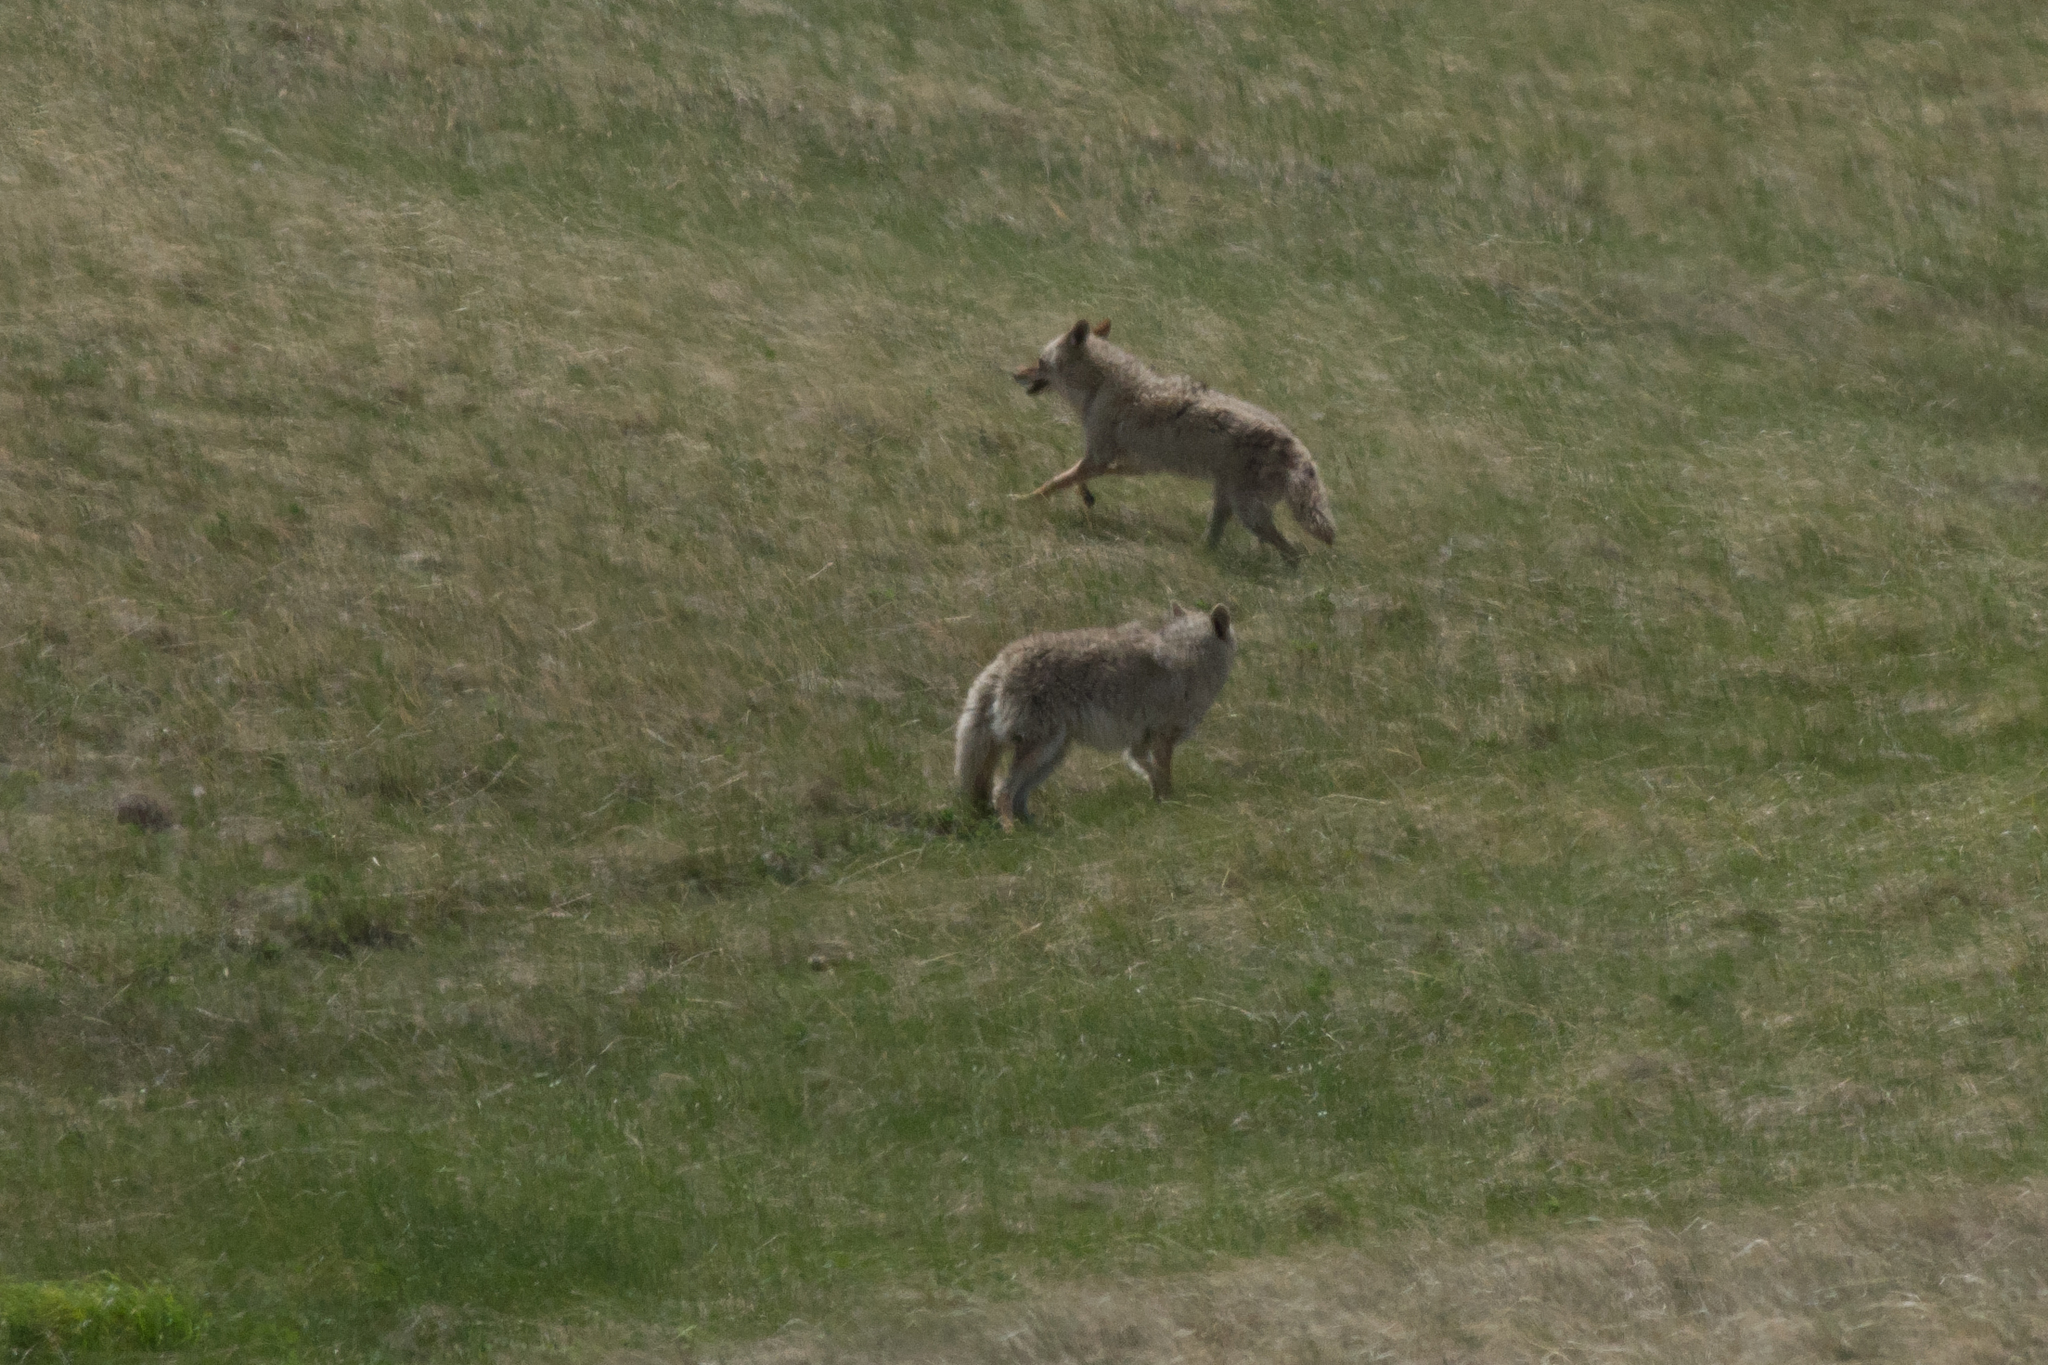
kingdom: Animalia
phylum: Chordata
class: Mammalia
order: Carnivora
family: Canidae
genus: Canis
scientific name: Canis latrans
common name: Coyote
